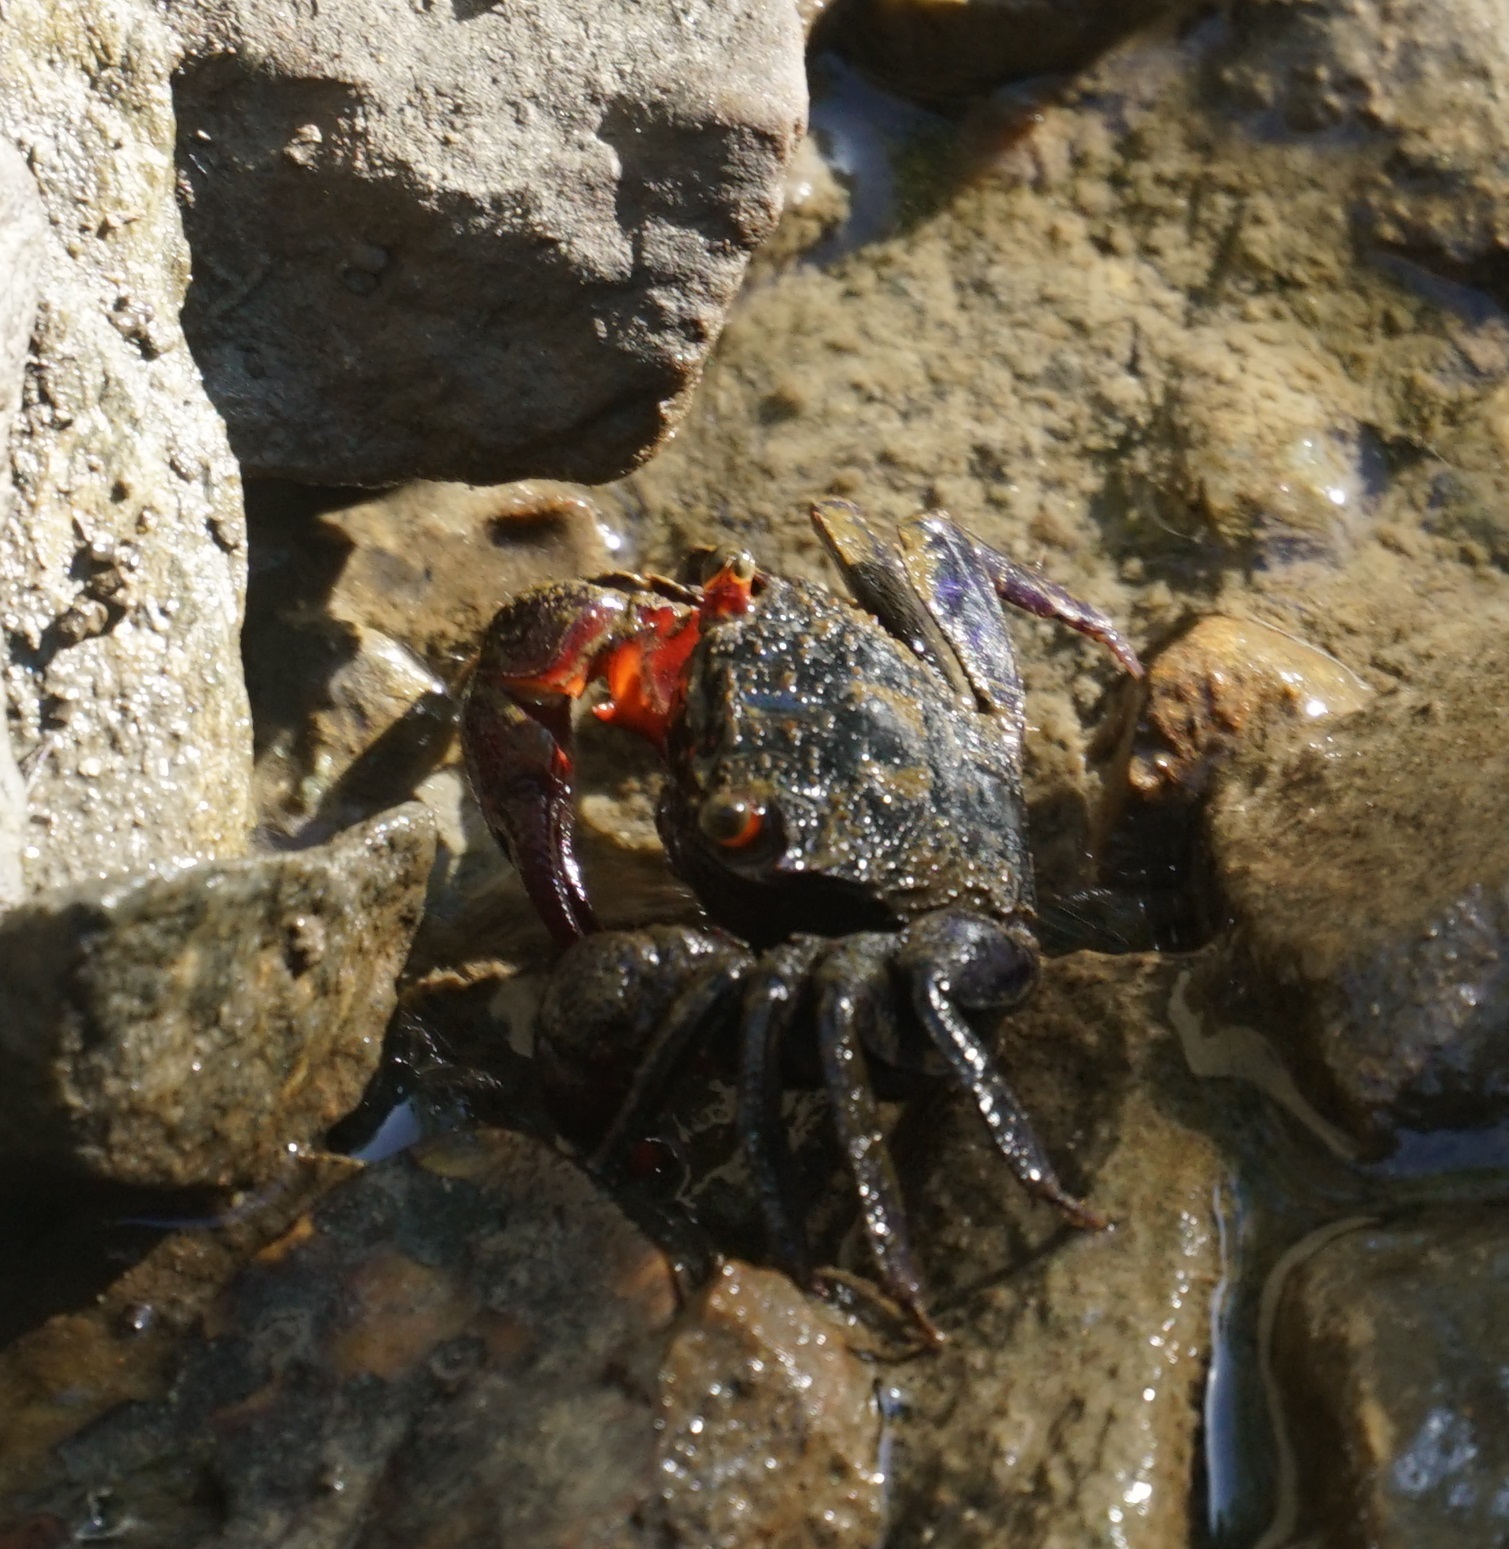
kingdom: Animalia
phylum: Arthropoda
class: Malacostraca
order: Decapoda
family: Sesarmidae
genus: Parasesarma
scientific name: Parasesarma messa
